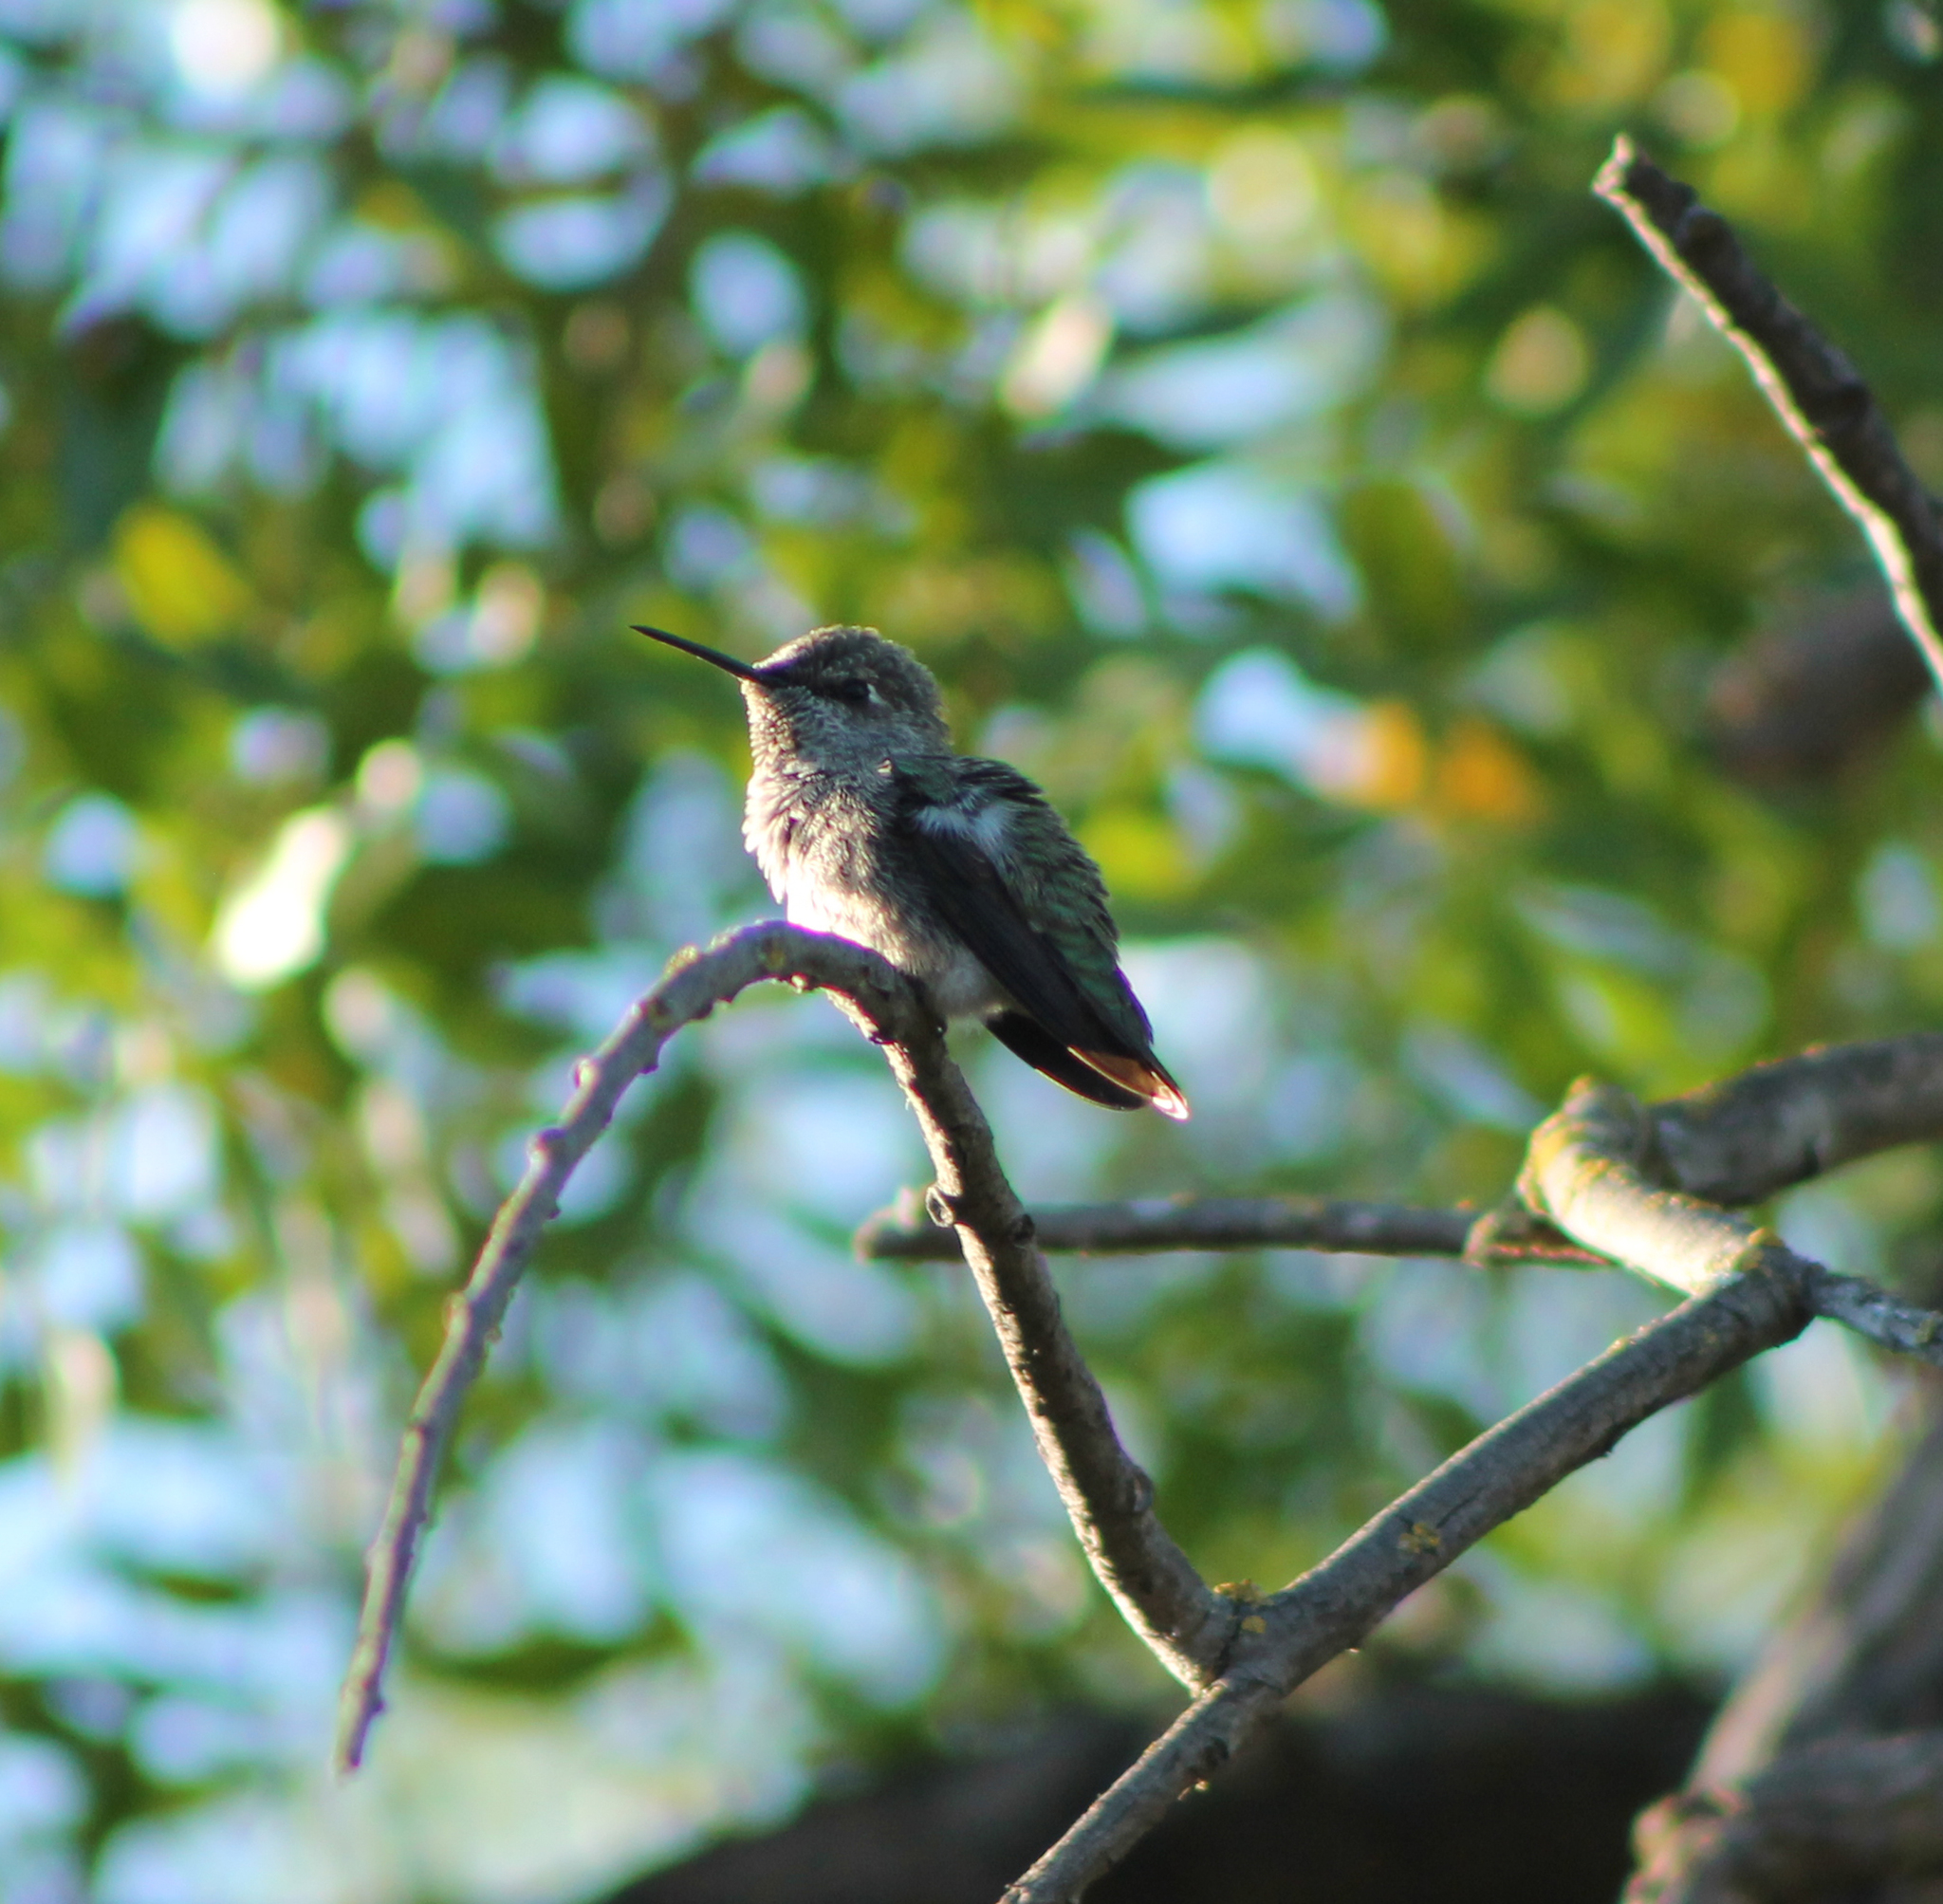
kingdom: Animalia
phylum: Chordata
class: Aves
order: Apodiformes
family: Trochilidae
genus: Calypte
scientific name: Calypte anna
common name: Anna's hummingbird
